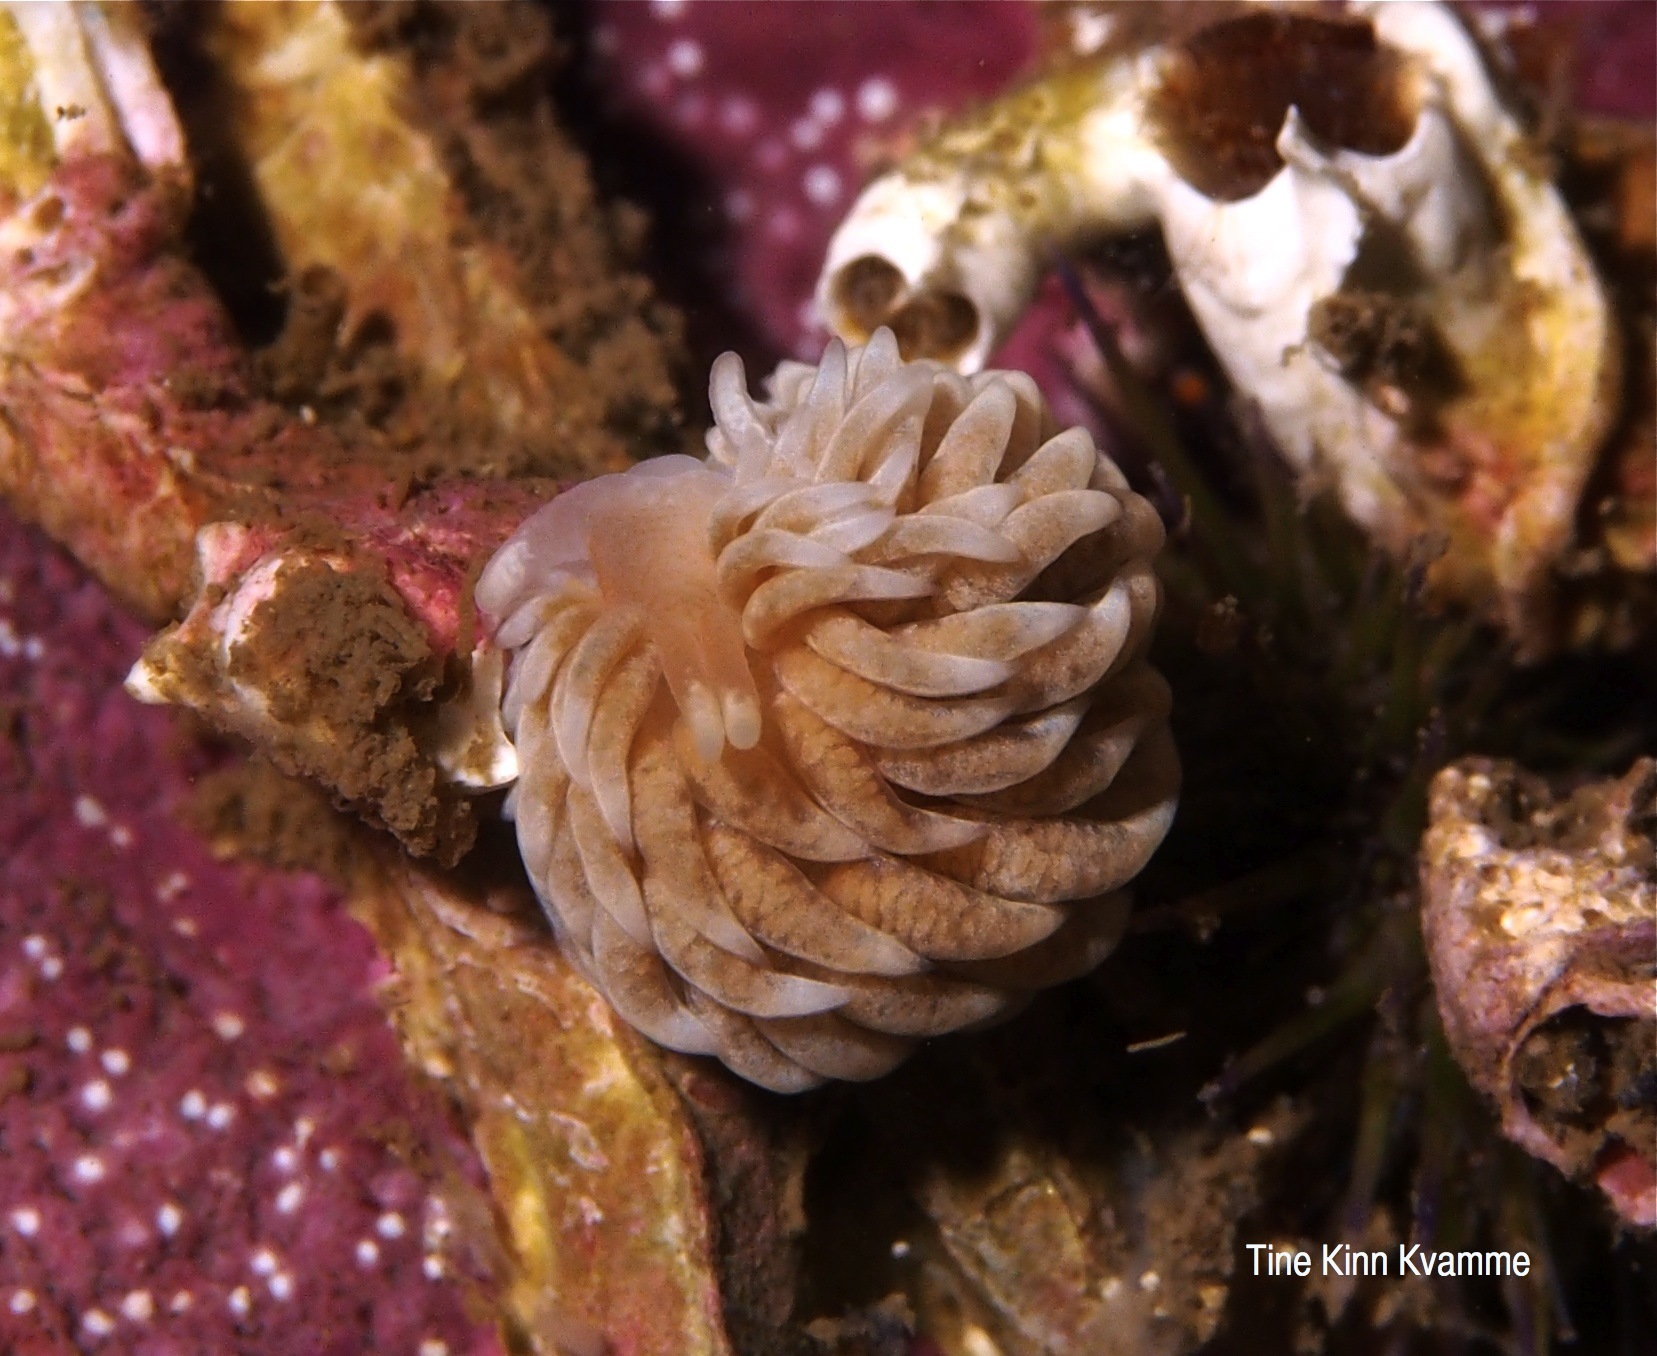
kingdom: Animalia
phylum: Mollusca
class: Gastropoda
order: Nudibranchia
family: Aeolidiidae
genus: Aeolidiella
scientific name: Aeolidiella glauca
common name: Orange-brown aeolid
